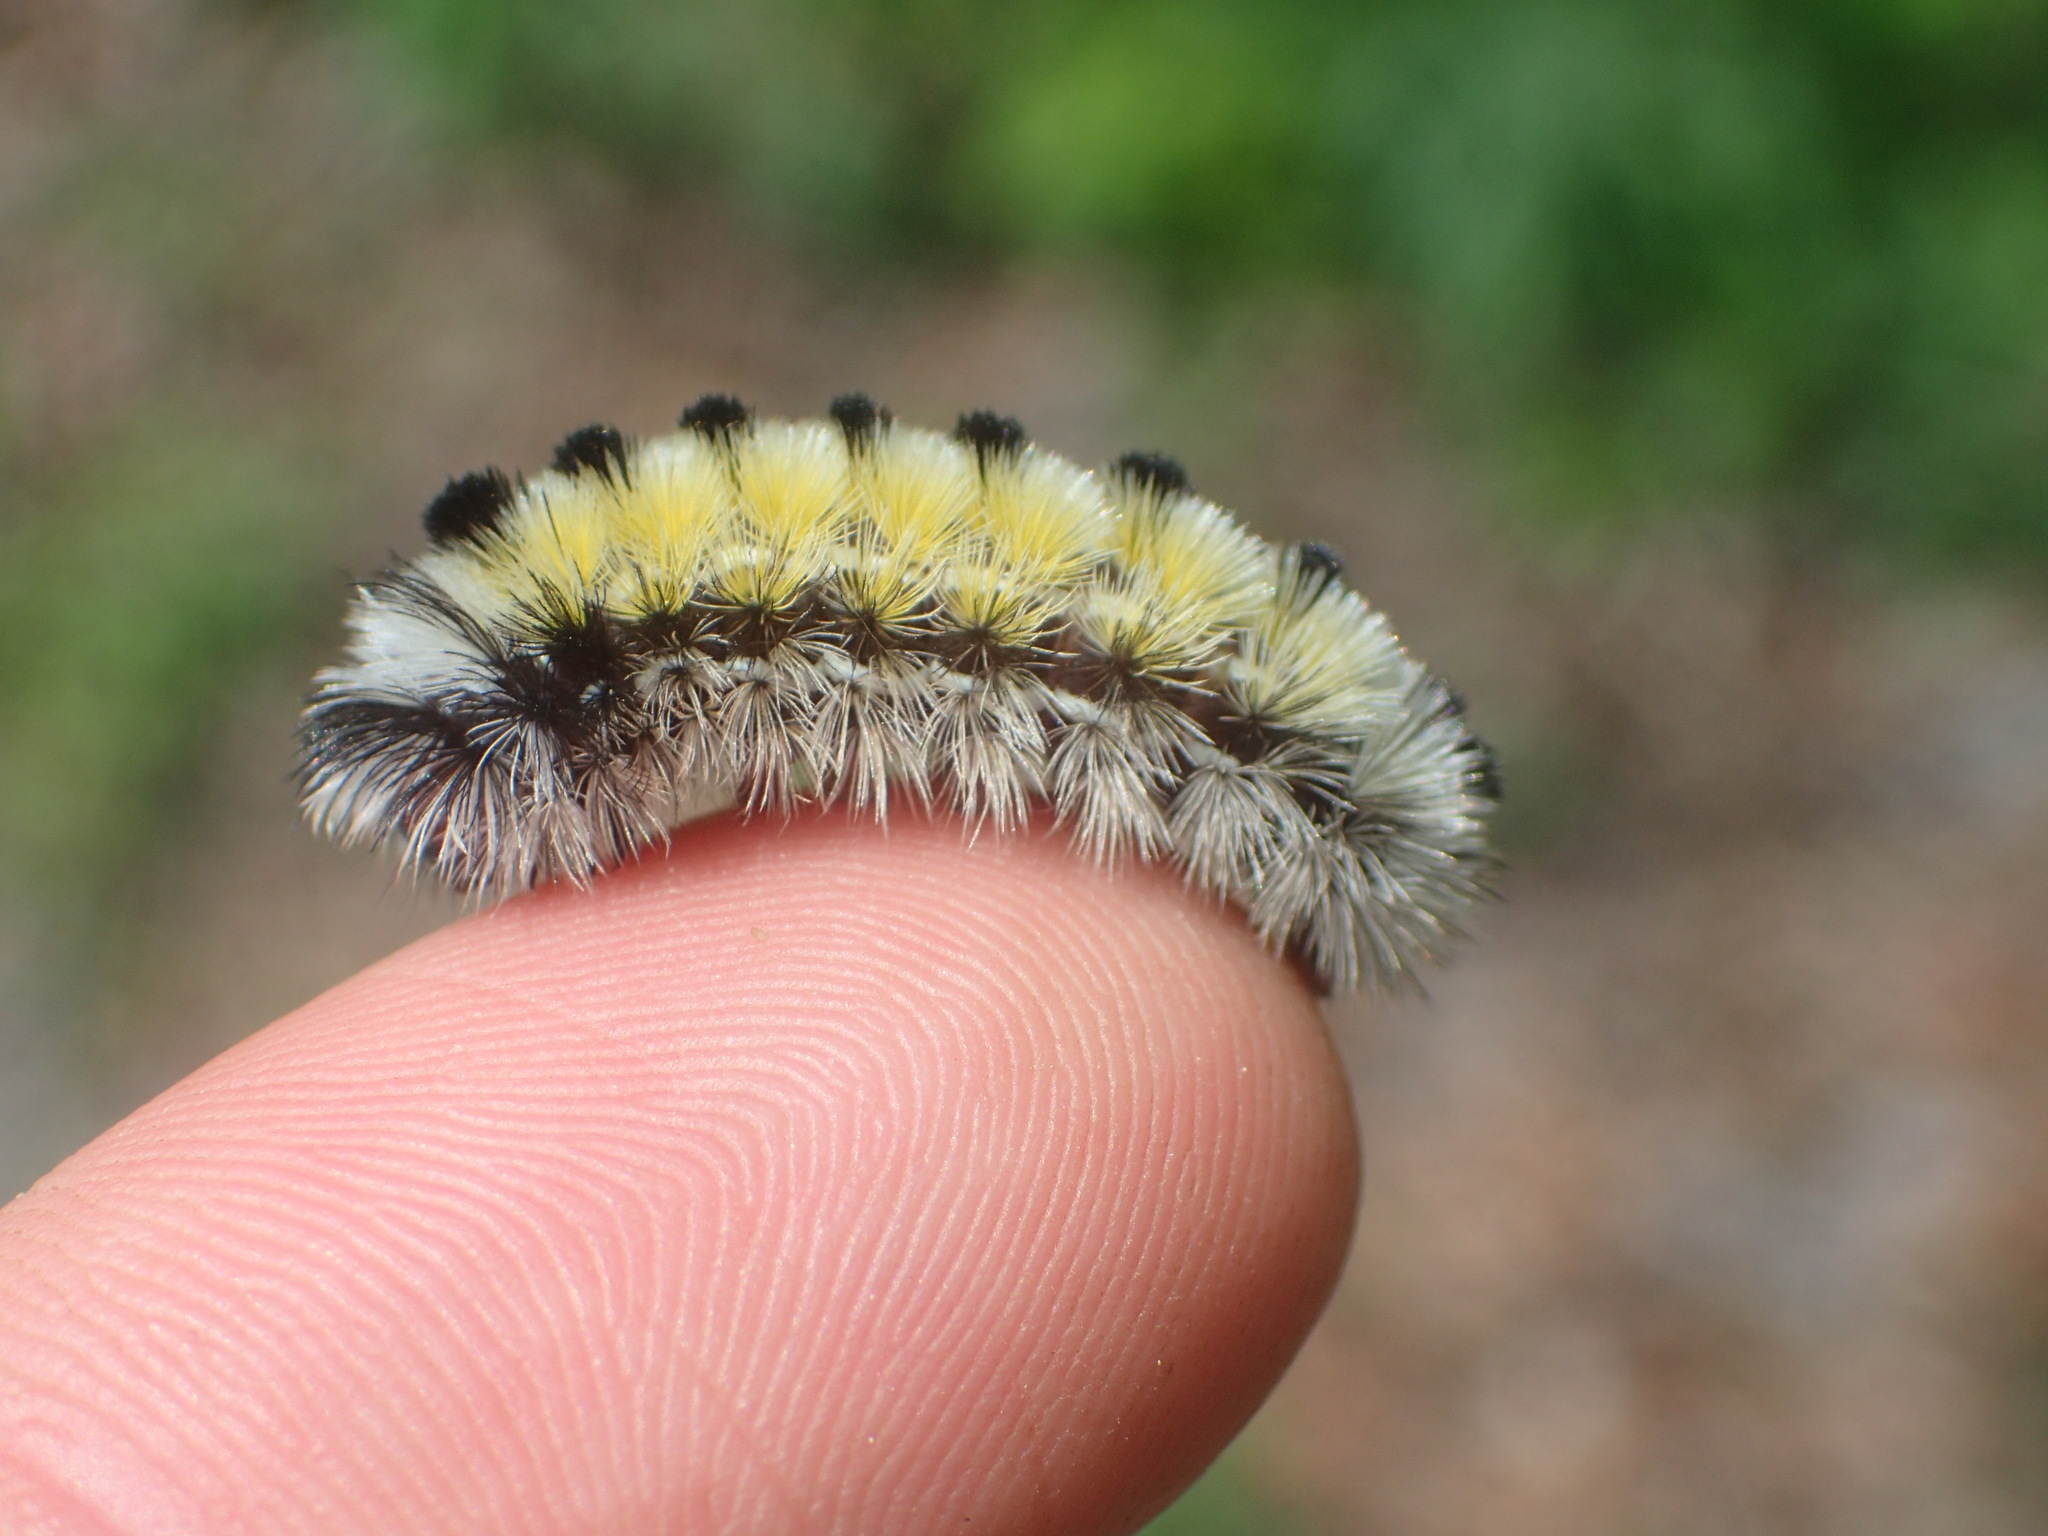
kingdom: Animalia
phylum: Arthropoda
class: Insecta
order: Lepidoptera
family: Erebidae
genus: Ctenucha
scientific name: Ctenucha virginica
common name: Virginia ctenucha moth
